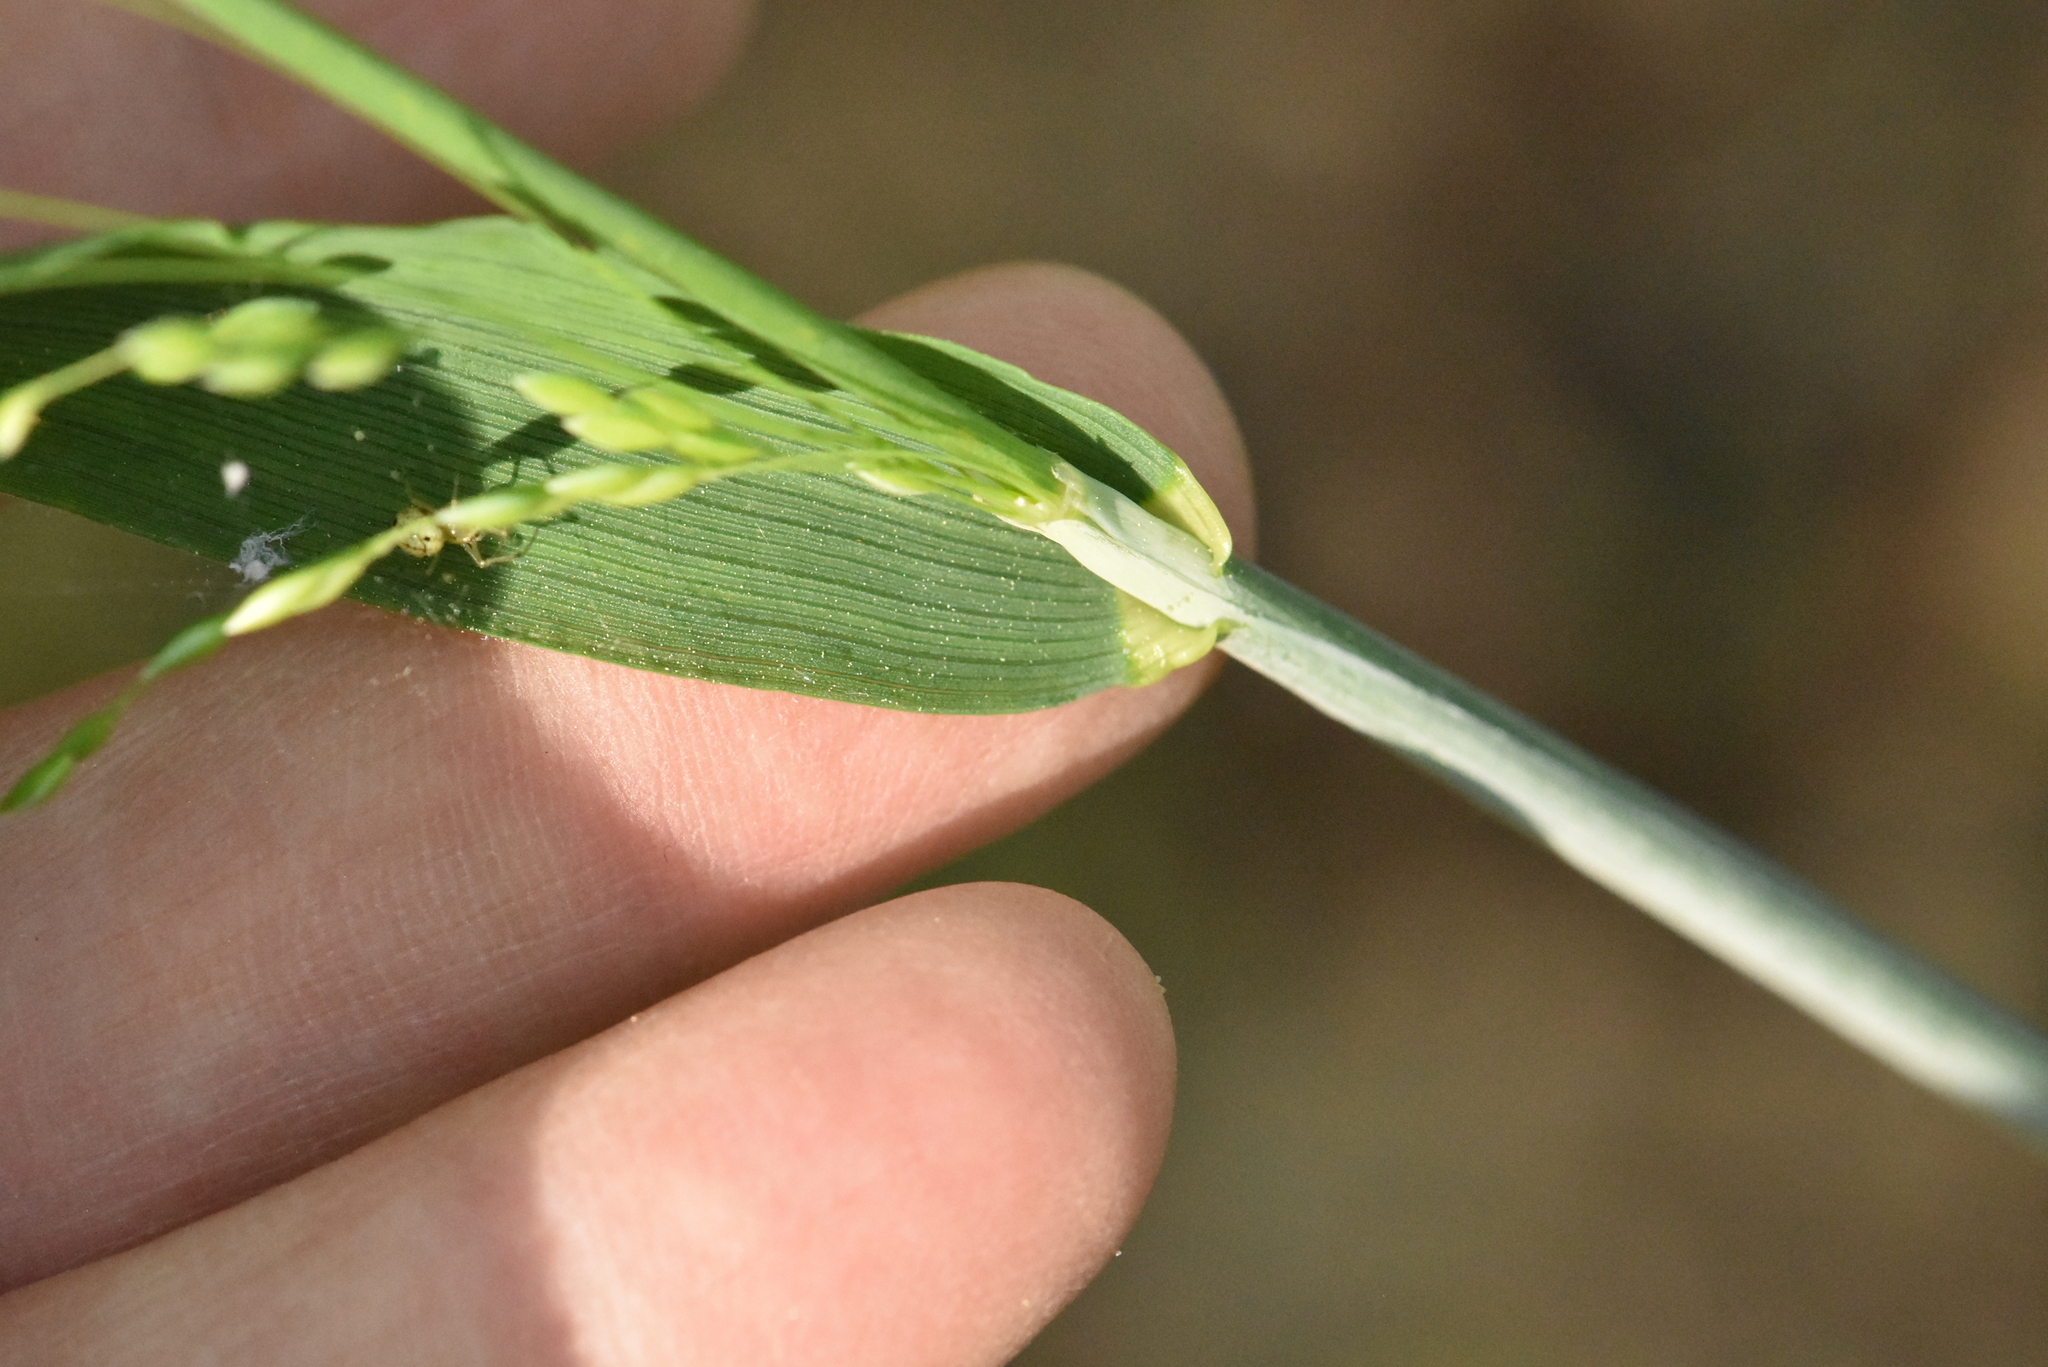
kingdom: Plantae
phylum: Tracheophyta
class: Liliopsida
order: Poales
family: Poaceae
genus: Milium
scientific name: Milium effusum
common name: Wood millet
